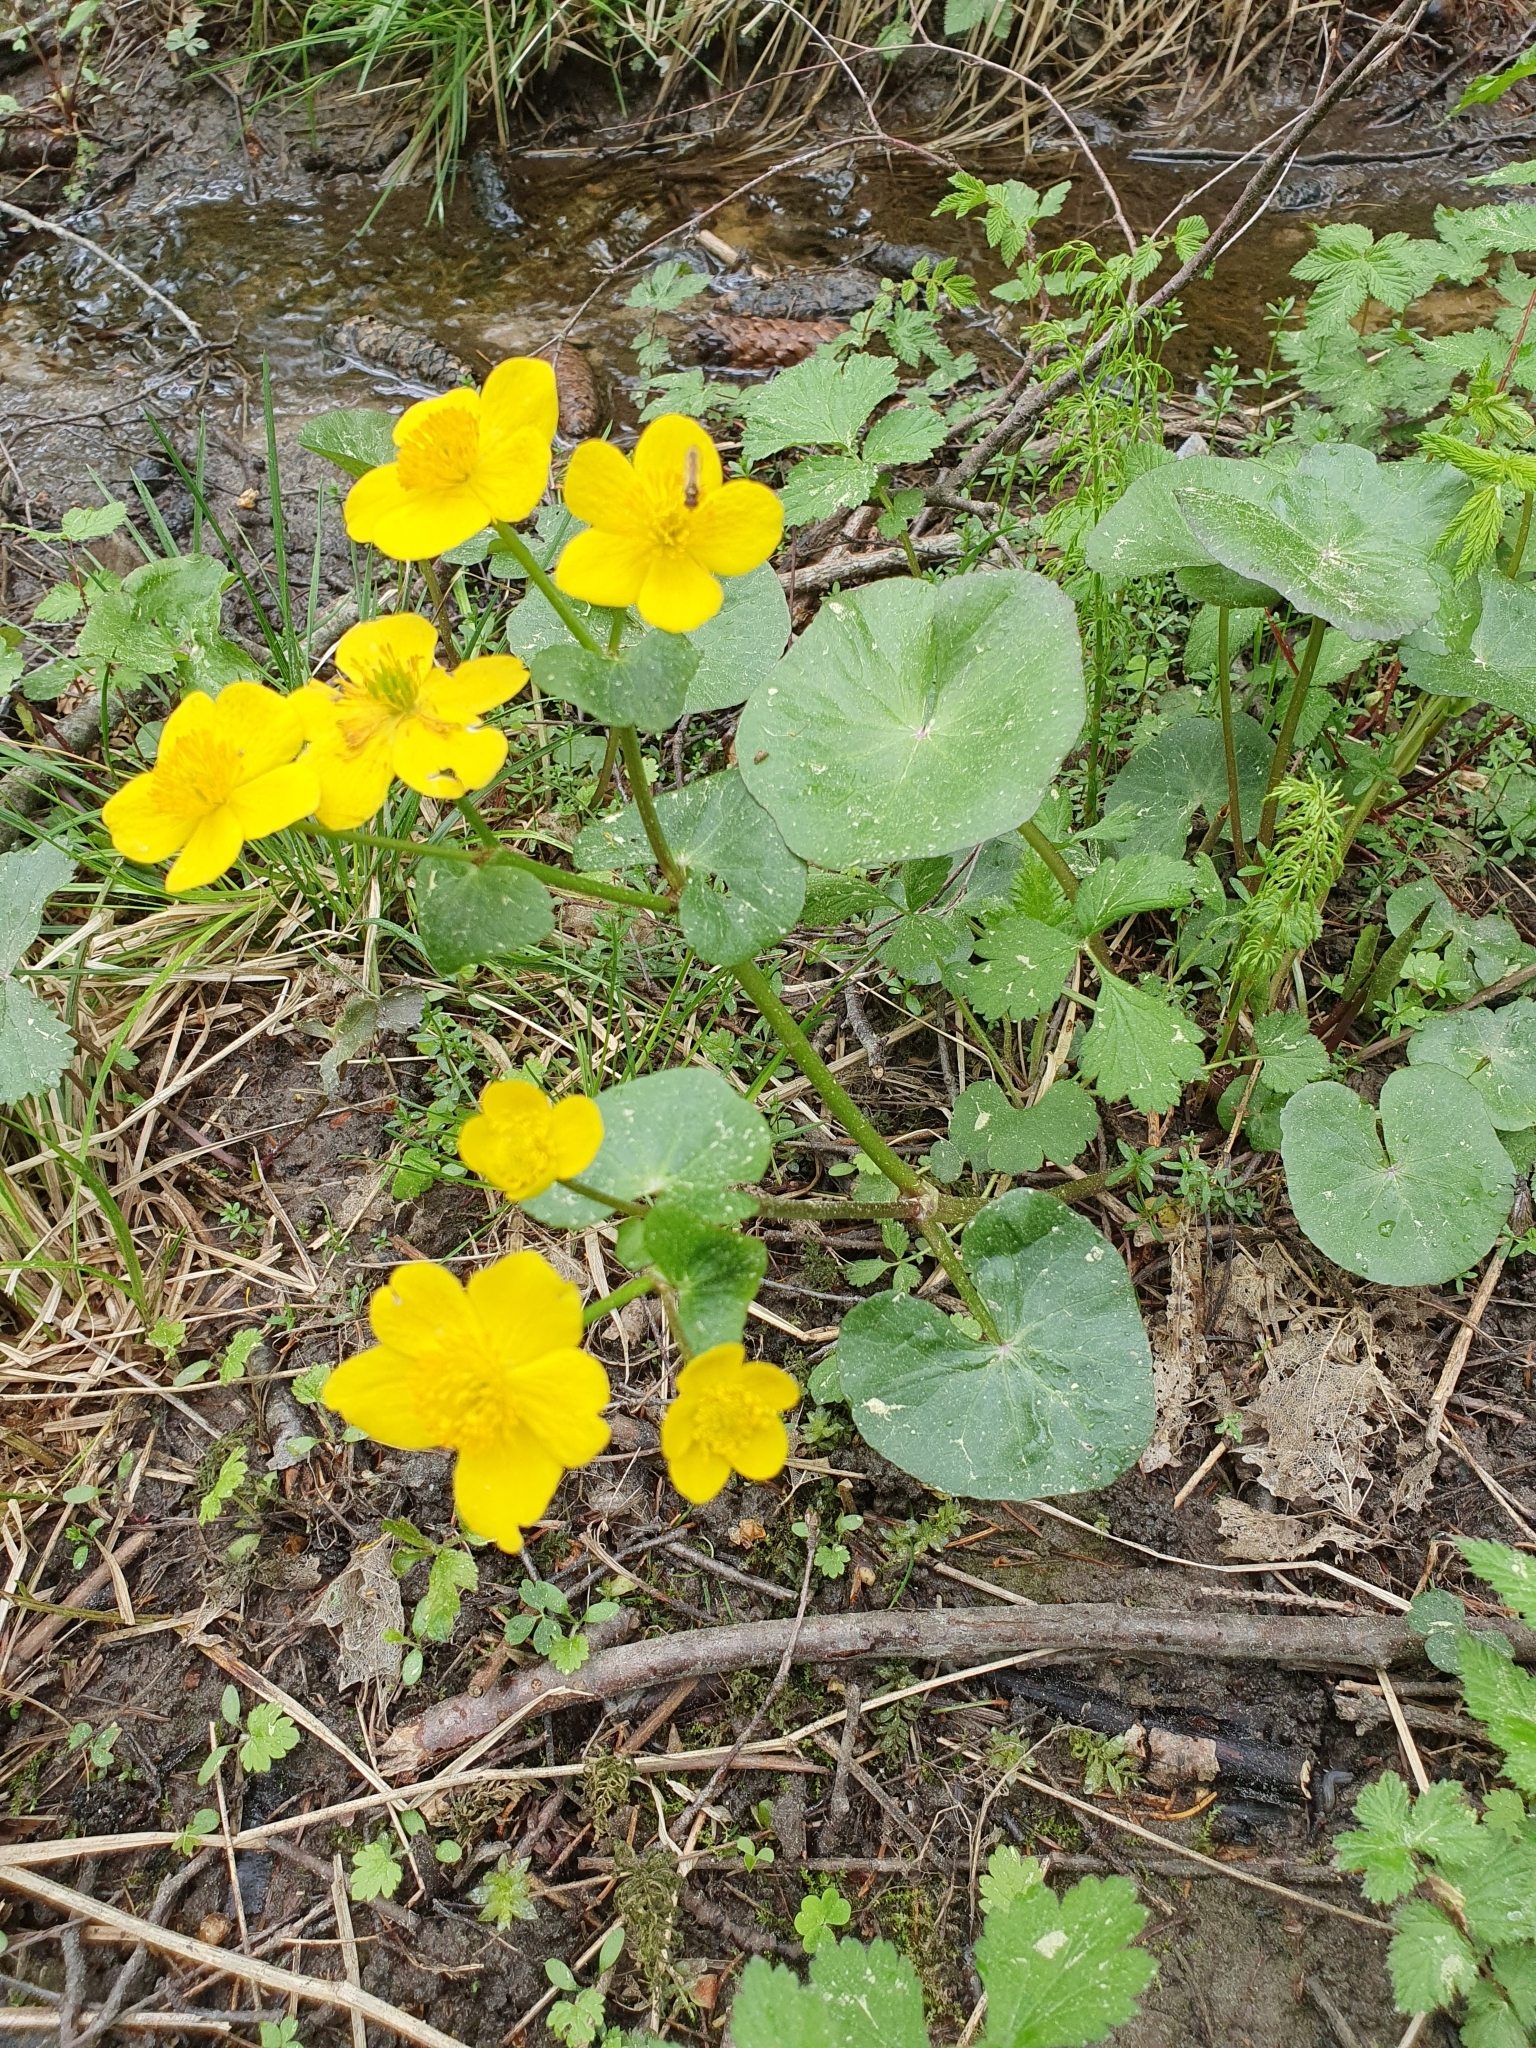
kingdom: Plantae
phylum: Tracheophyta
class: Magnoliopsida
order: Ranunculales
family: Ranunculaceae
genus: Caltha
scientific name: Caltha palustris
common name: Marsh marigold
